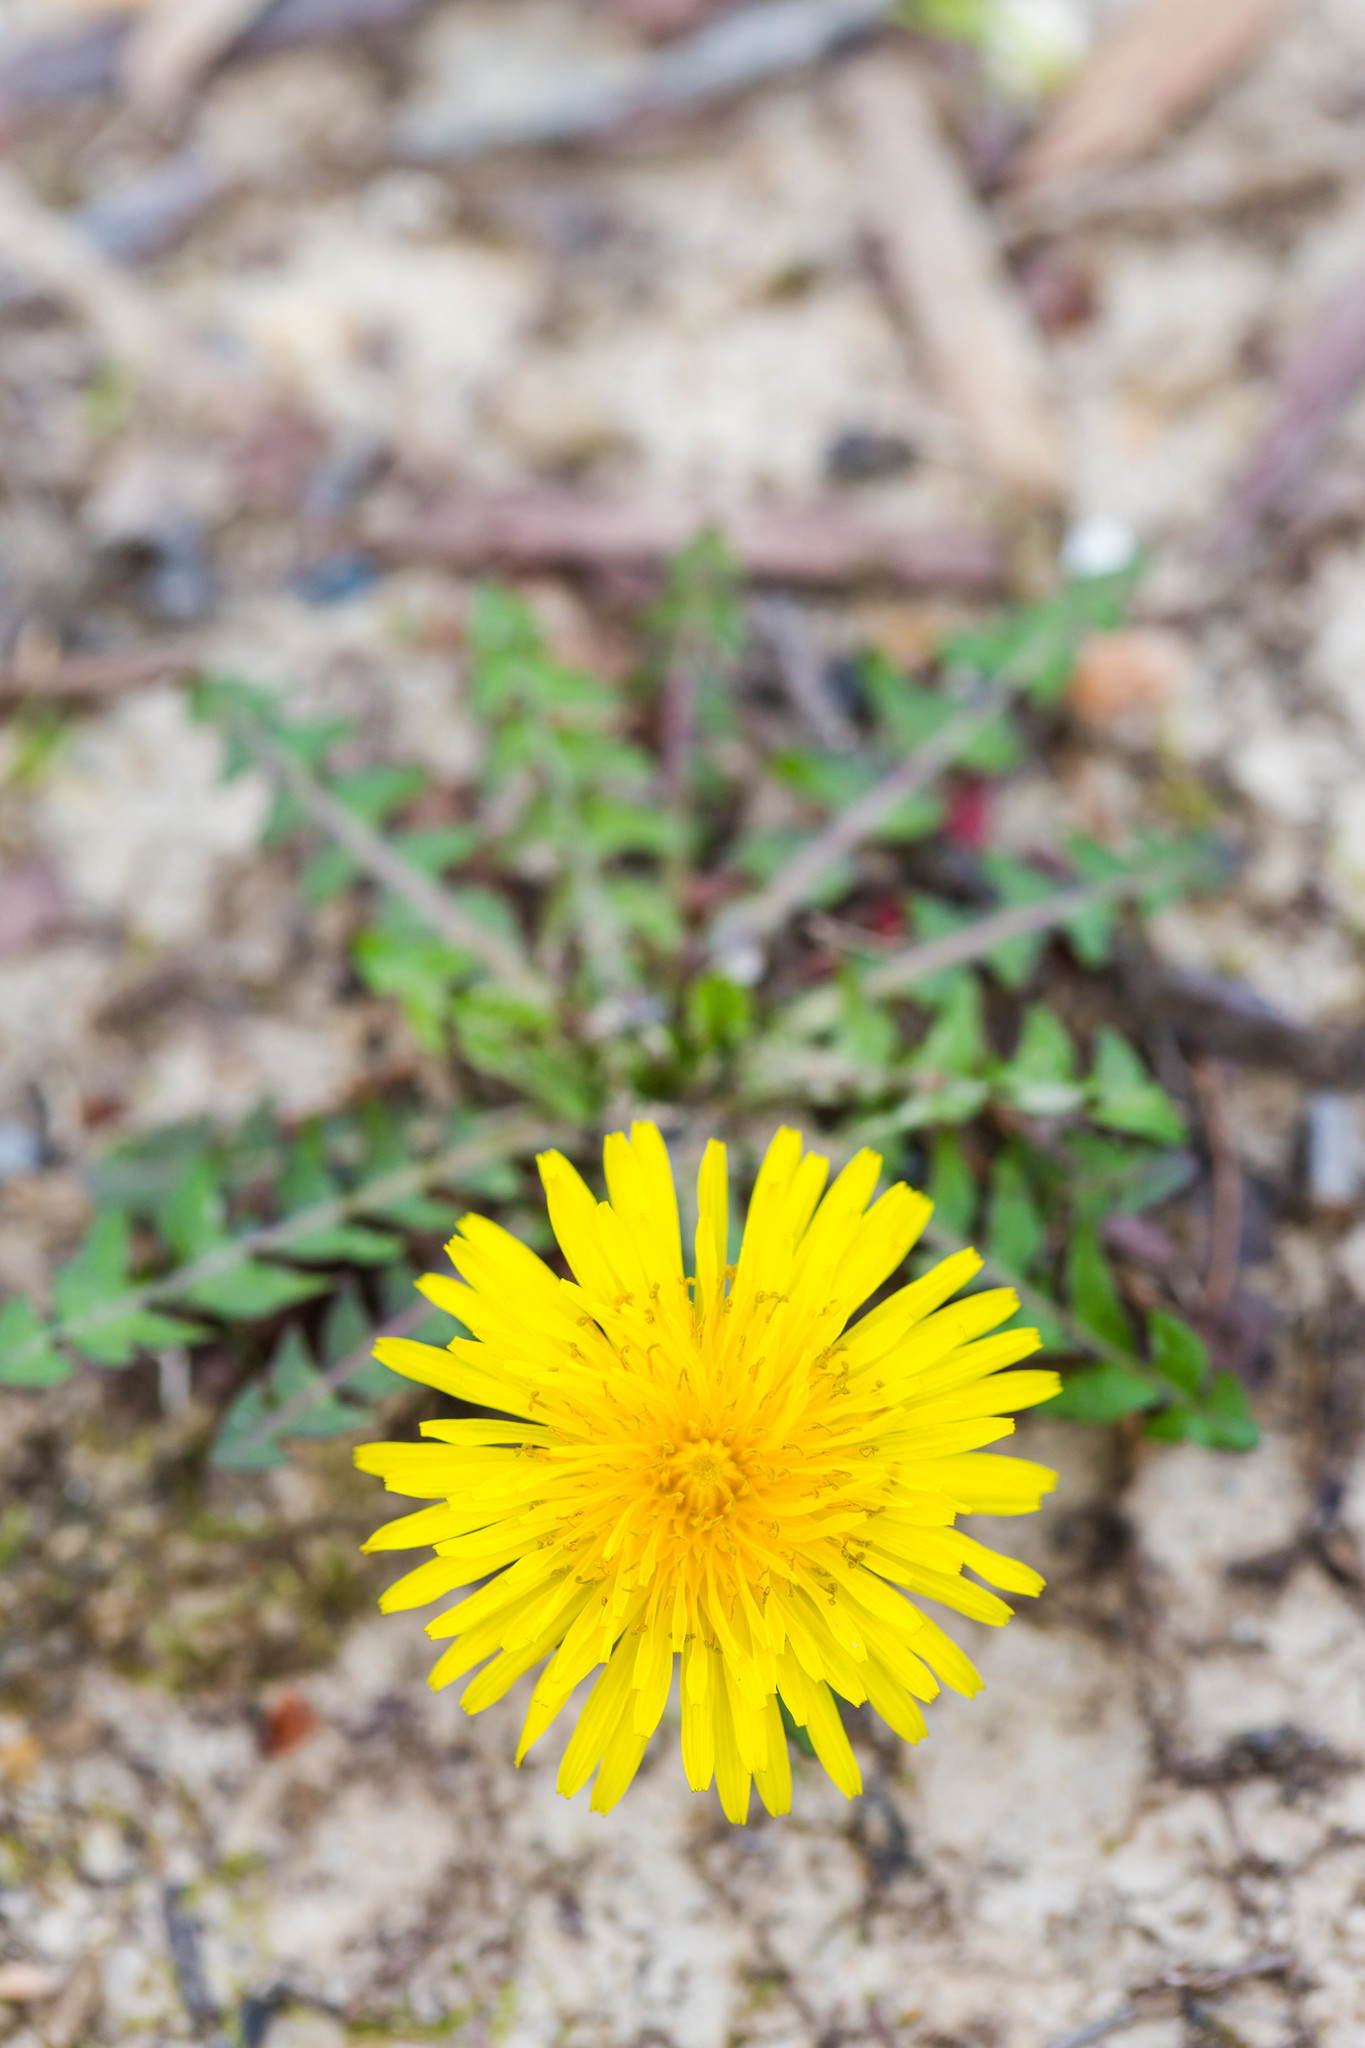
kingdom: Plantae
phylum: Tracheophyta
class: Magnoliopsida
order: Asterales
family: Asteraceae
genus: Taraxacum
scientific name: Taraxacum officinale
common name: Common dandelion
